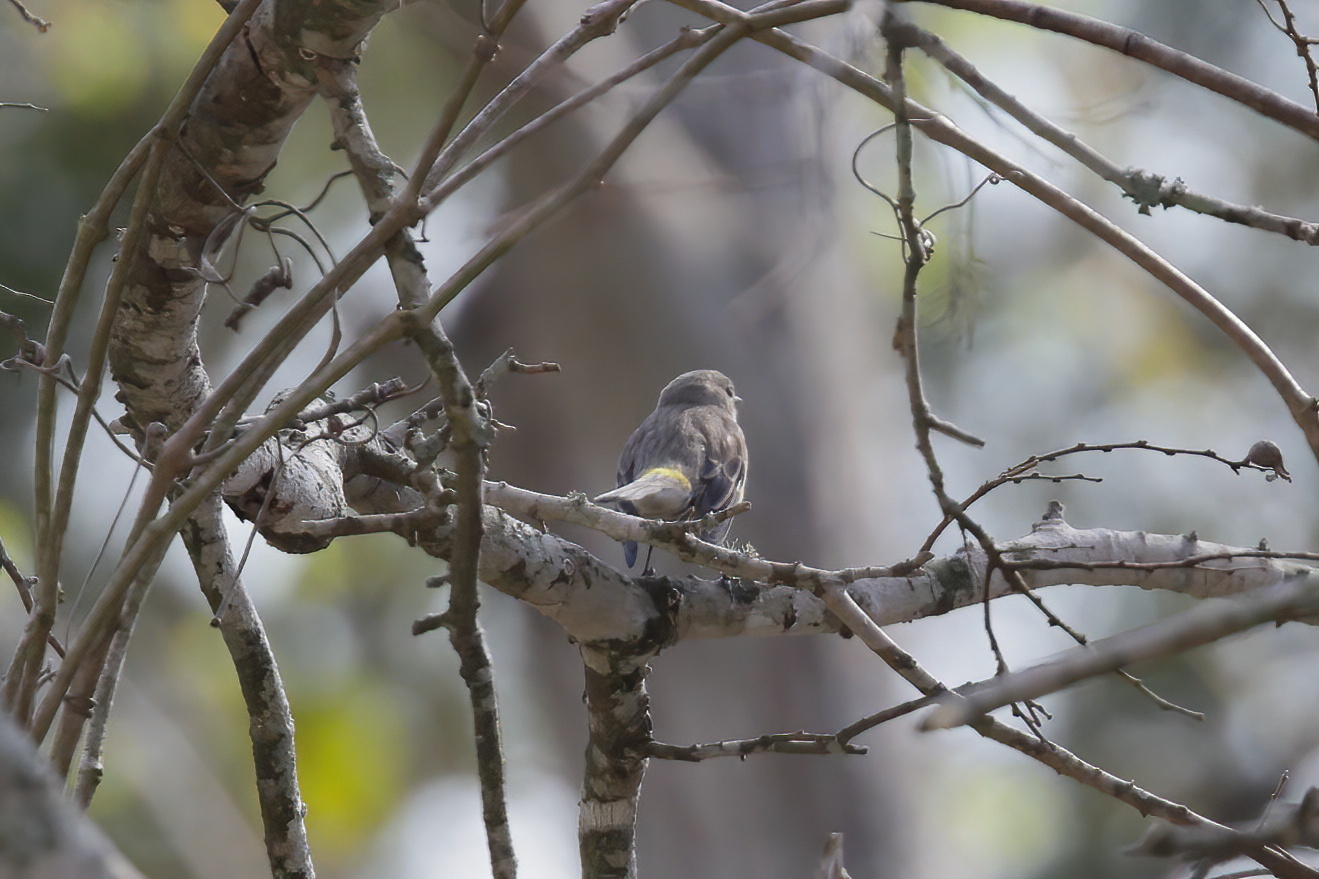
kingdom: Animalia
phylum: Chordata
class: Aves
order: Passeriformes
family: Parulidae
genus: Setophaga
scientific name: Setophaga coronata
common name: Myrtle warbler
